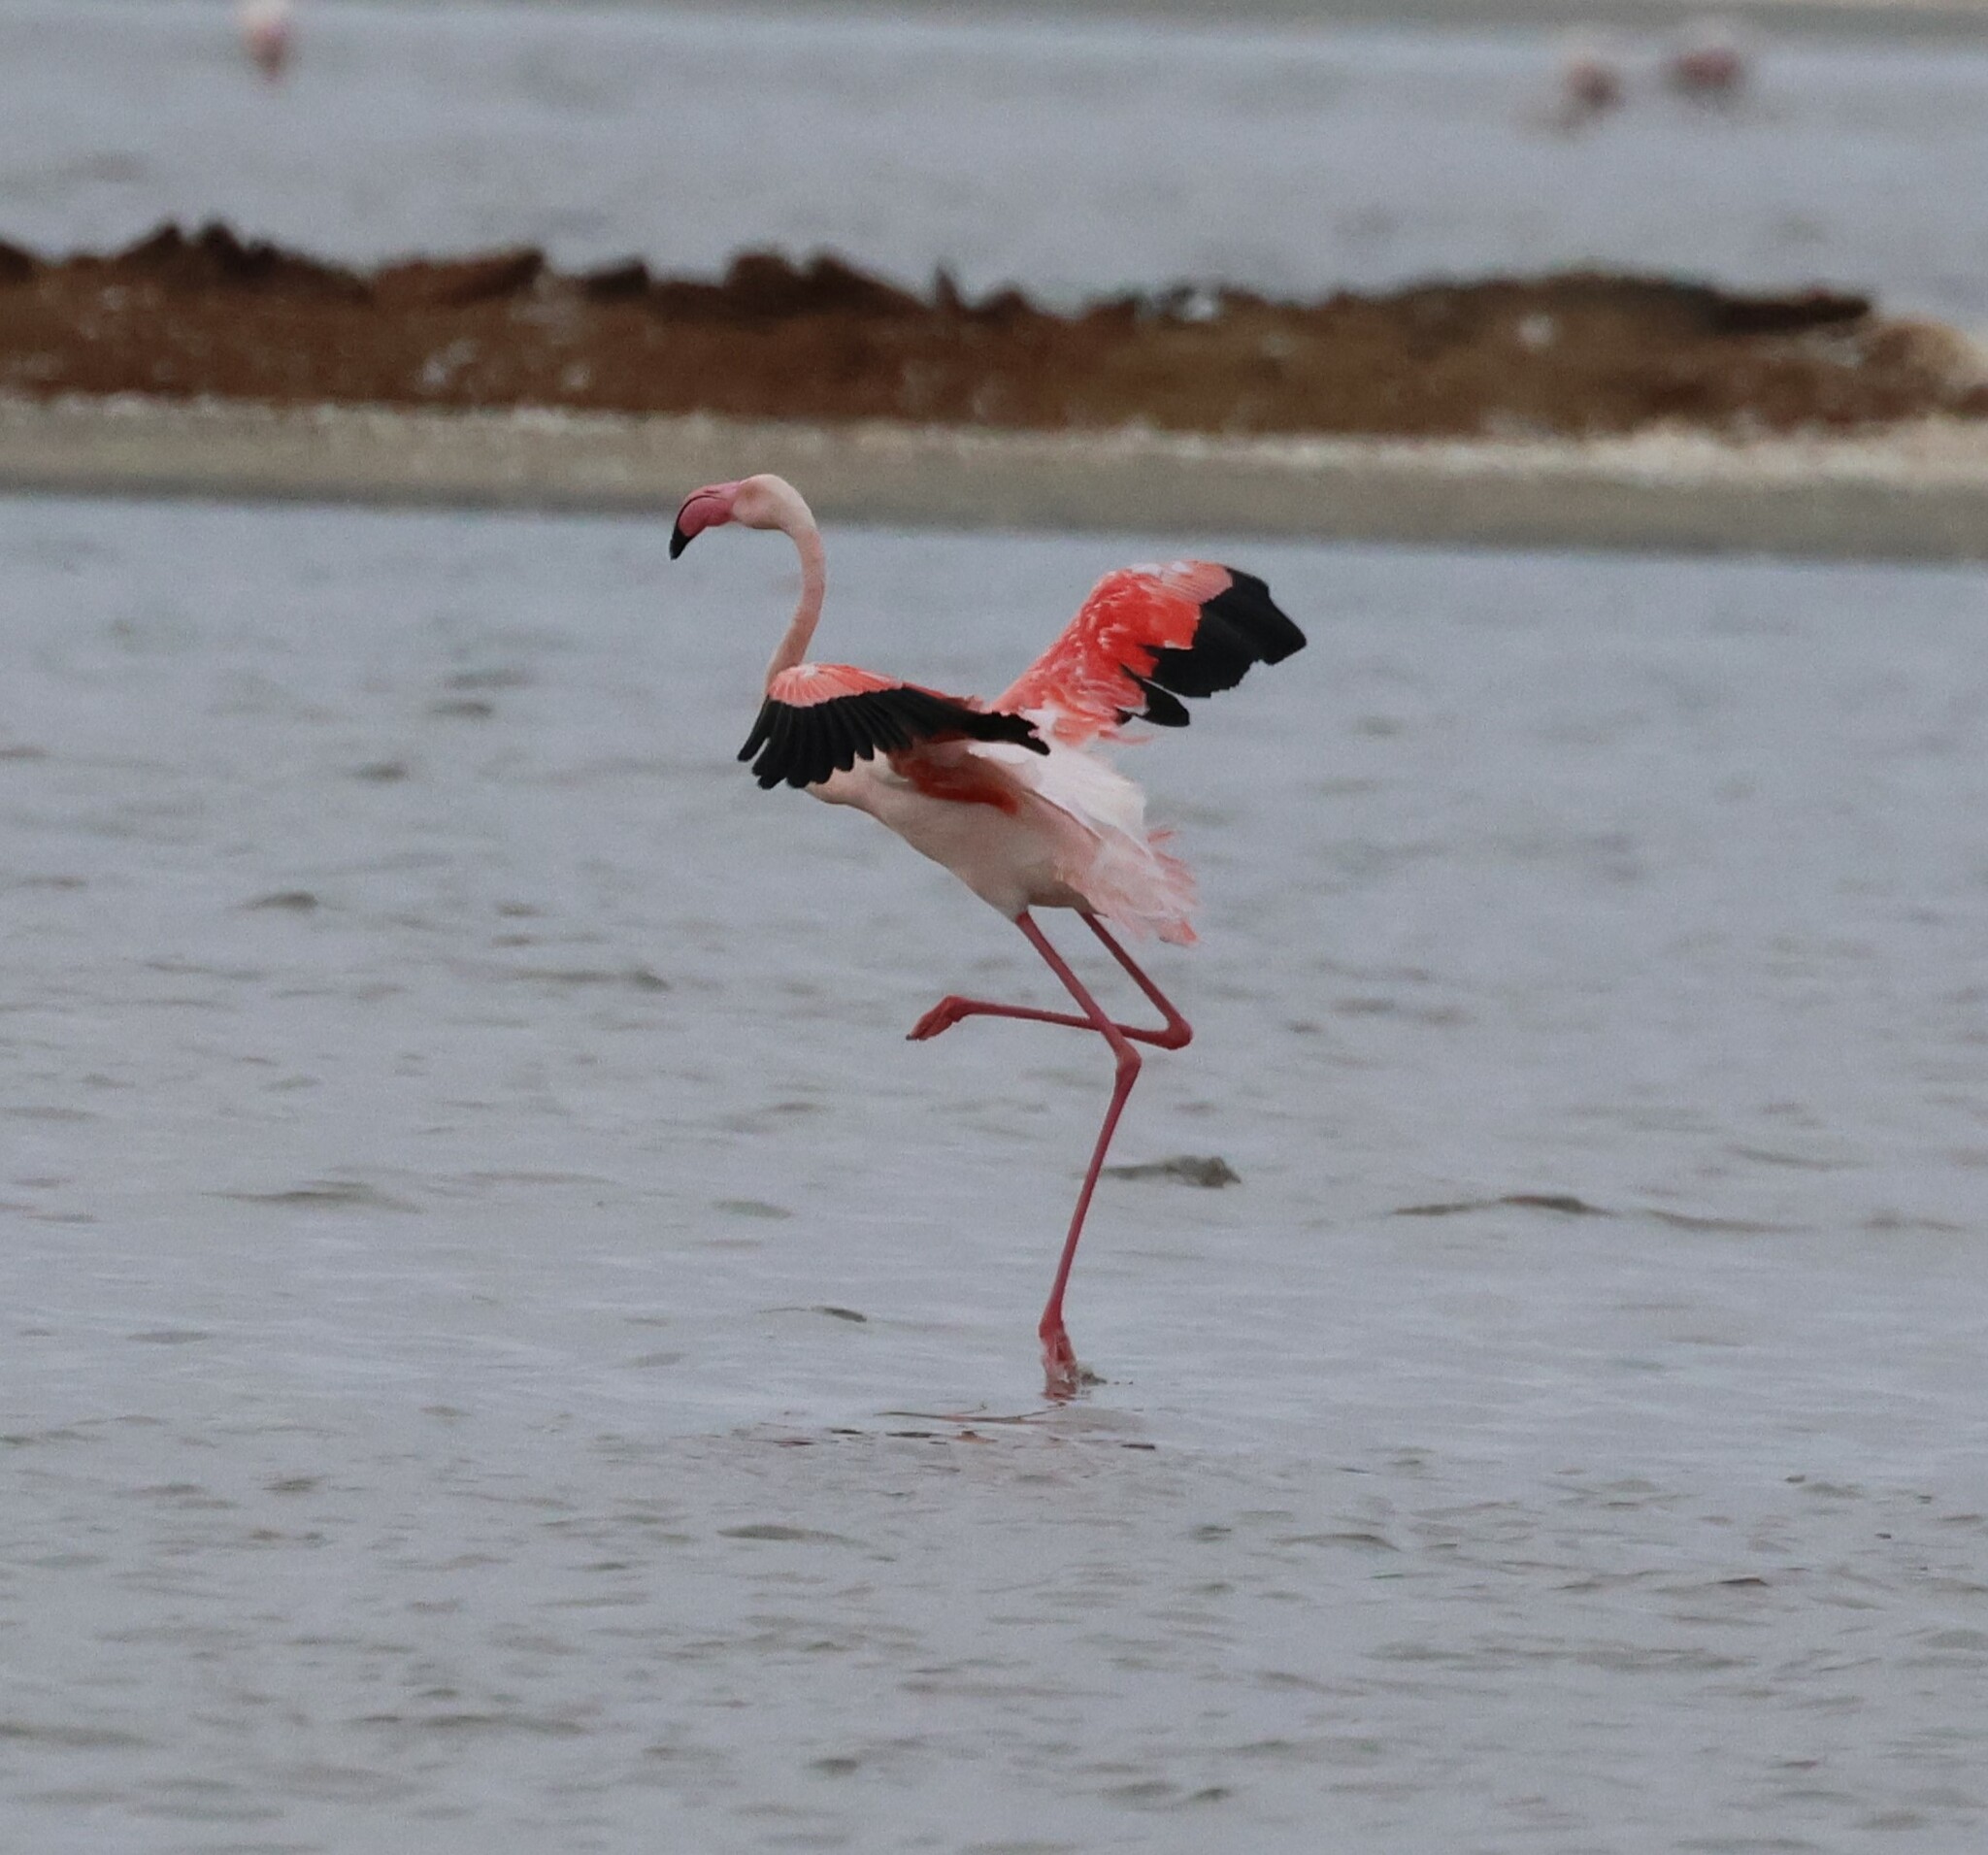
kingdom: Animalia
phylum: Chordata
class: Aves
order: Phoenicopteriformes
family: Phoenicopteridae
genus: Phoenicopterus
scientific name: Phoenicopterus roseus
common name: Greater flamingo
